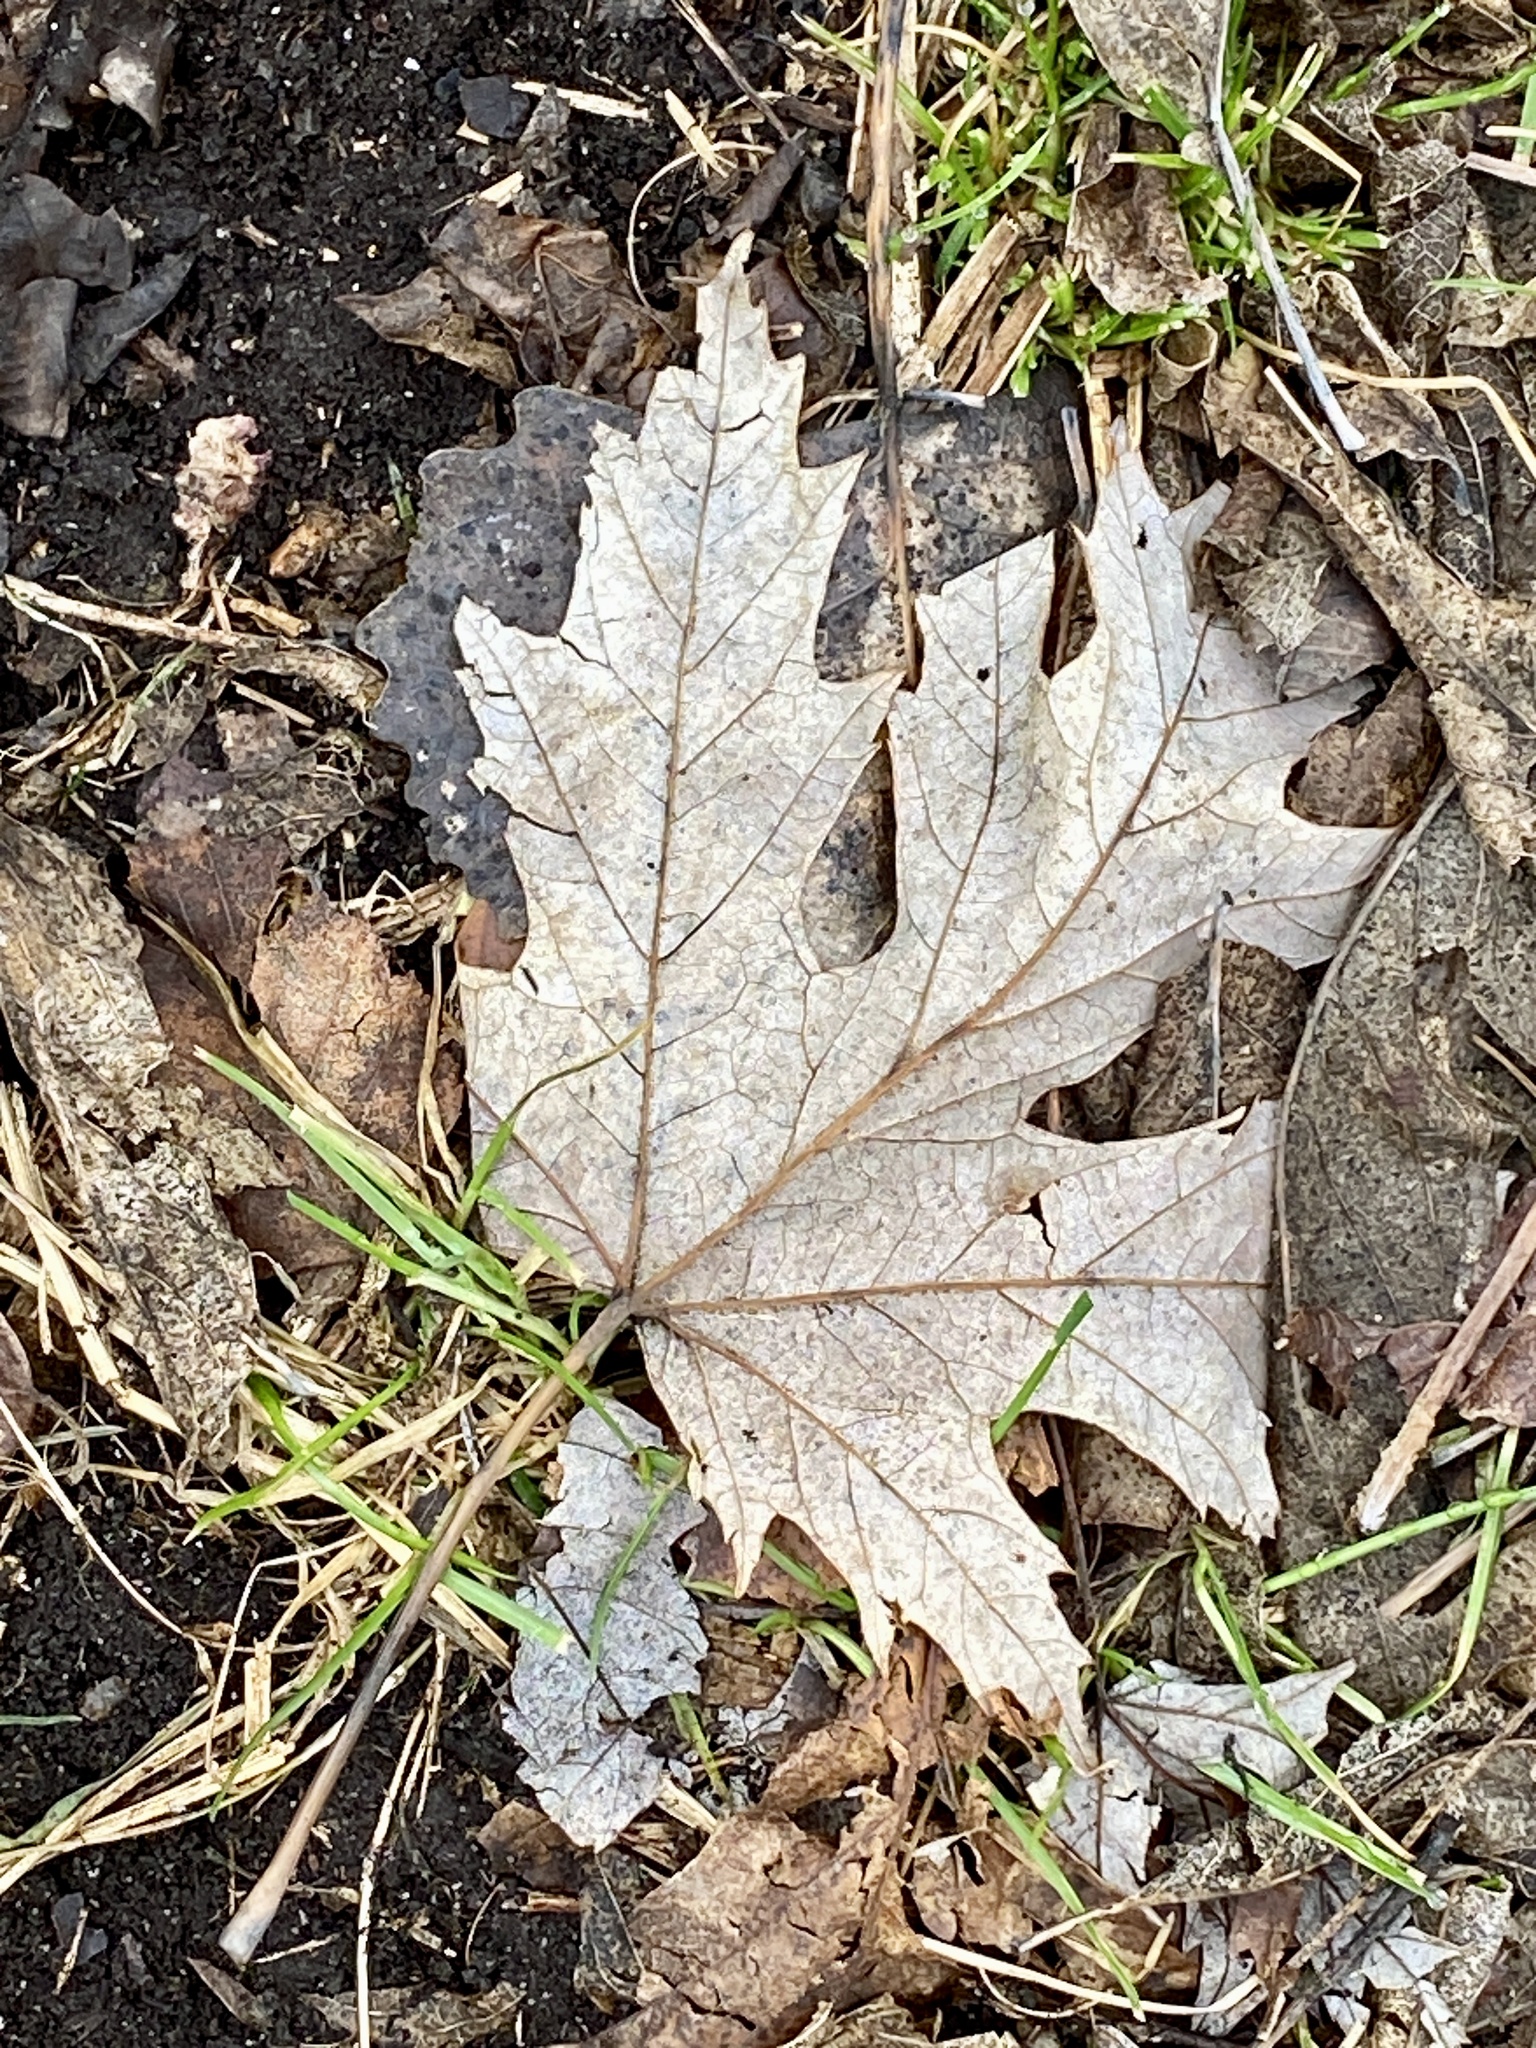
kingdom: Plantae
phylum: Tracheophyta
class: Magnoliopsida
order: Sapindales
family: Sapindaceae
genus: Acer
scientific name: Acer saccharinum
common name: Silver maple
